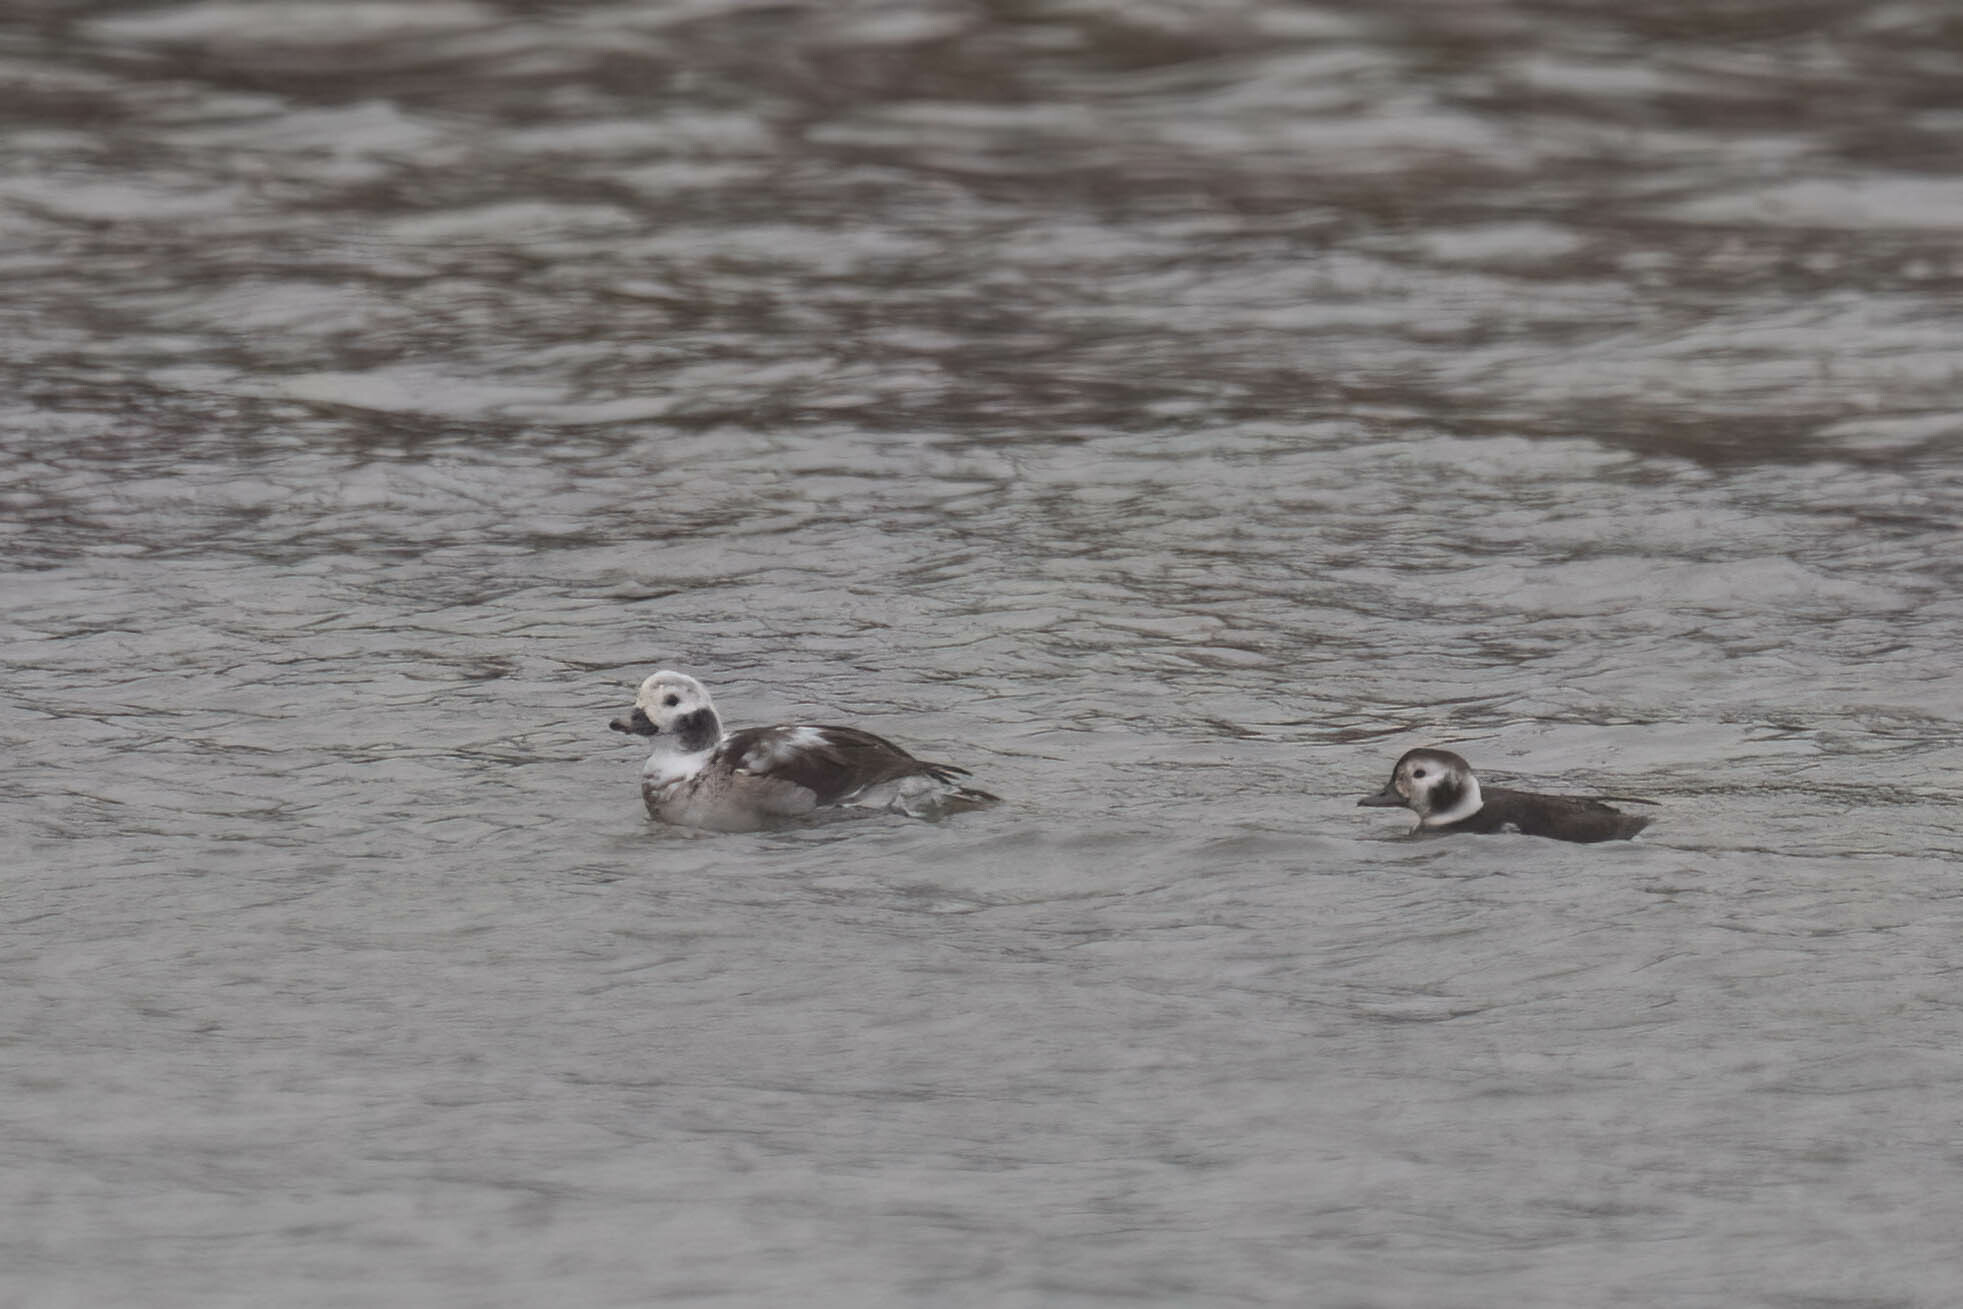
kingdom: Animalia
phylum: Chordata
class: Aves
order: Anseriformes
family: Anatidae
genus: Clangula
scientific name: Clangula hyemalis
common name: Long-tailed duck
